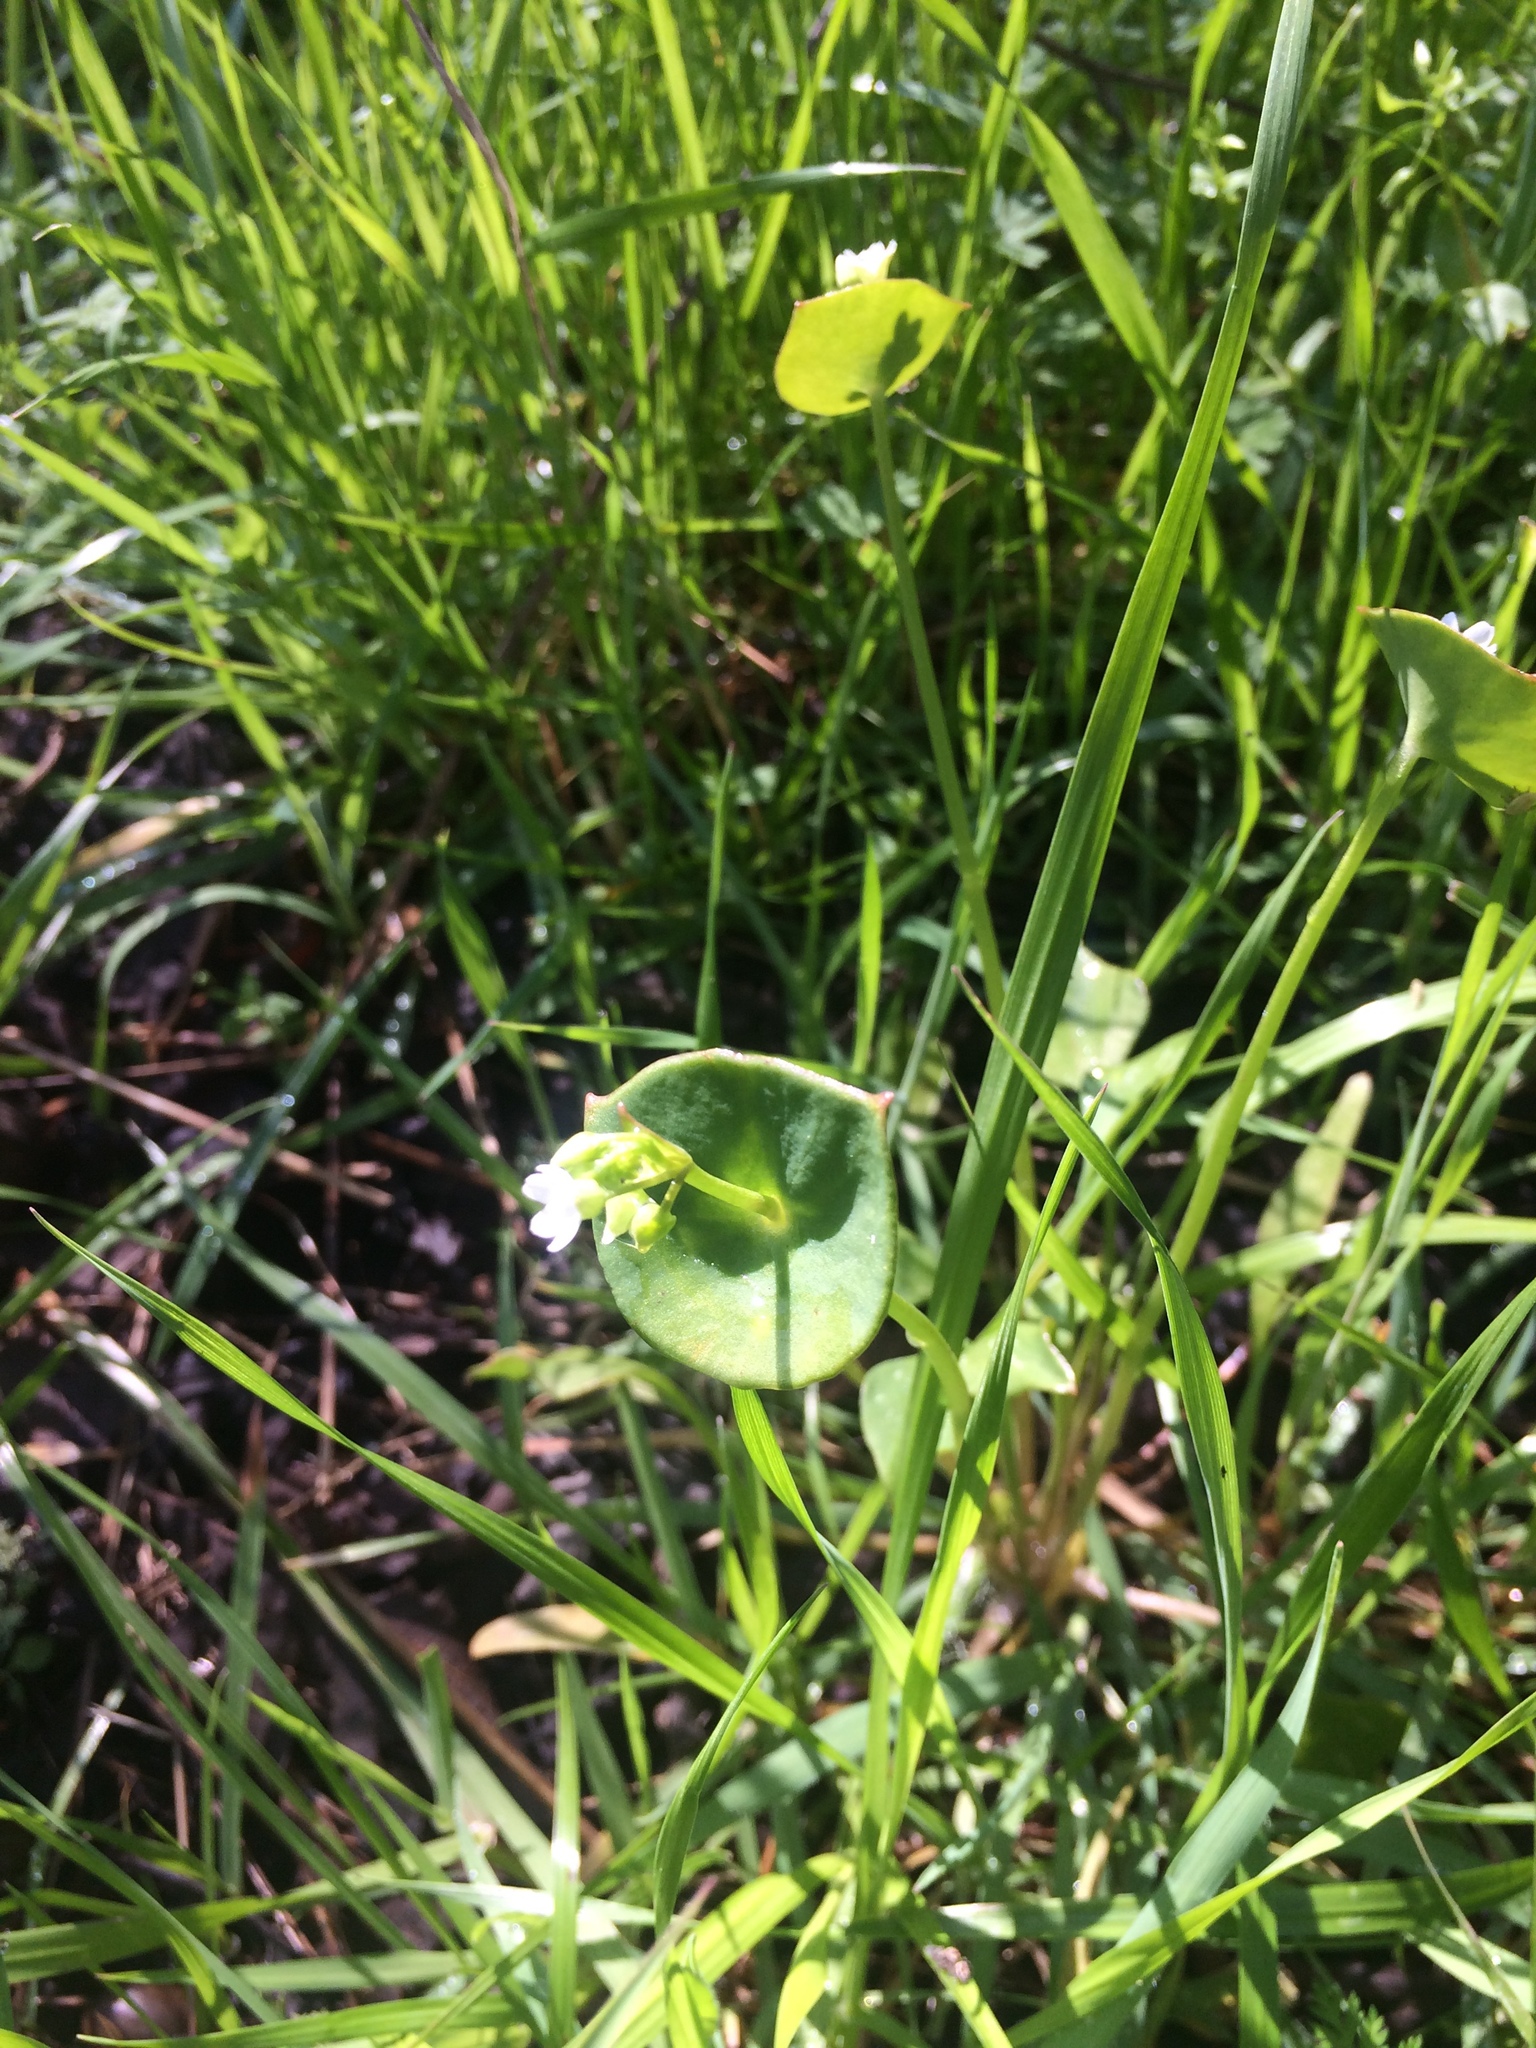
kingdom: Plantae
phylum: Tracheophyta
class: Magnoliopsida
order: Caryophyllales
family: Montiaceae
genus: Claytonia
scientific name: Claytonia perfoliata
